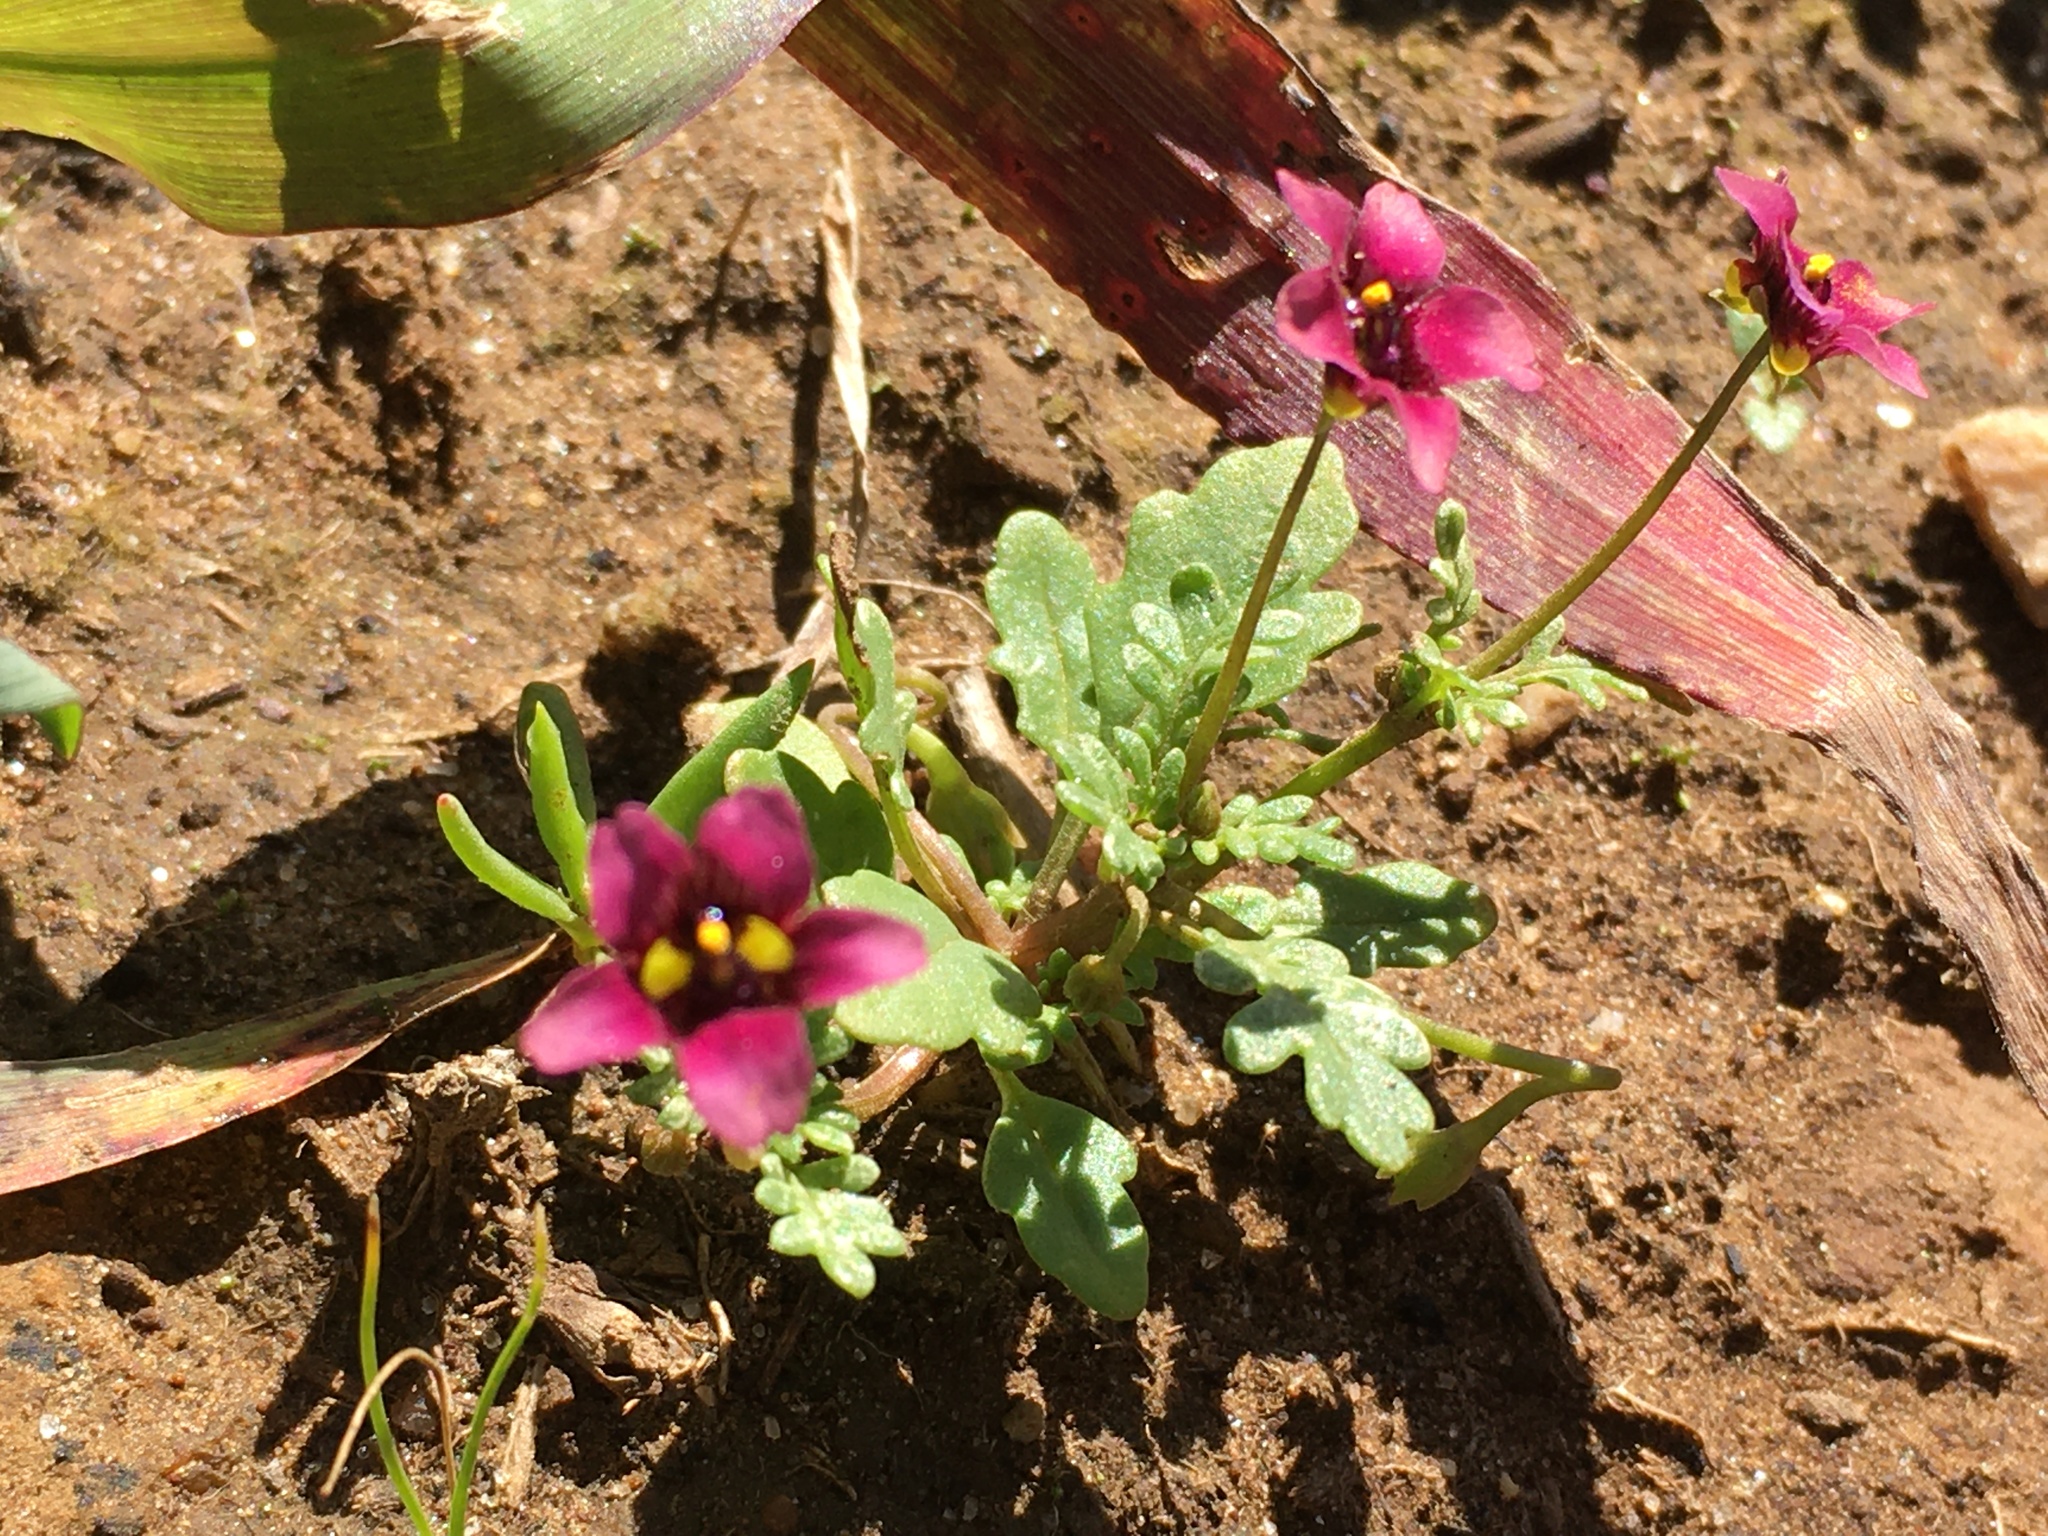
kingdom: Plantae
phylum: Tracheophyta
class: Magnoliopsida
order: Lamiales
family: Scrophulariaceae
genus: Diascia
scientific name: Diascia elongata
